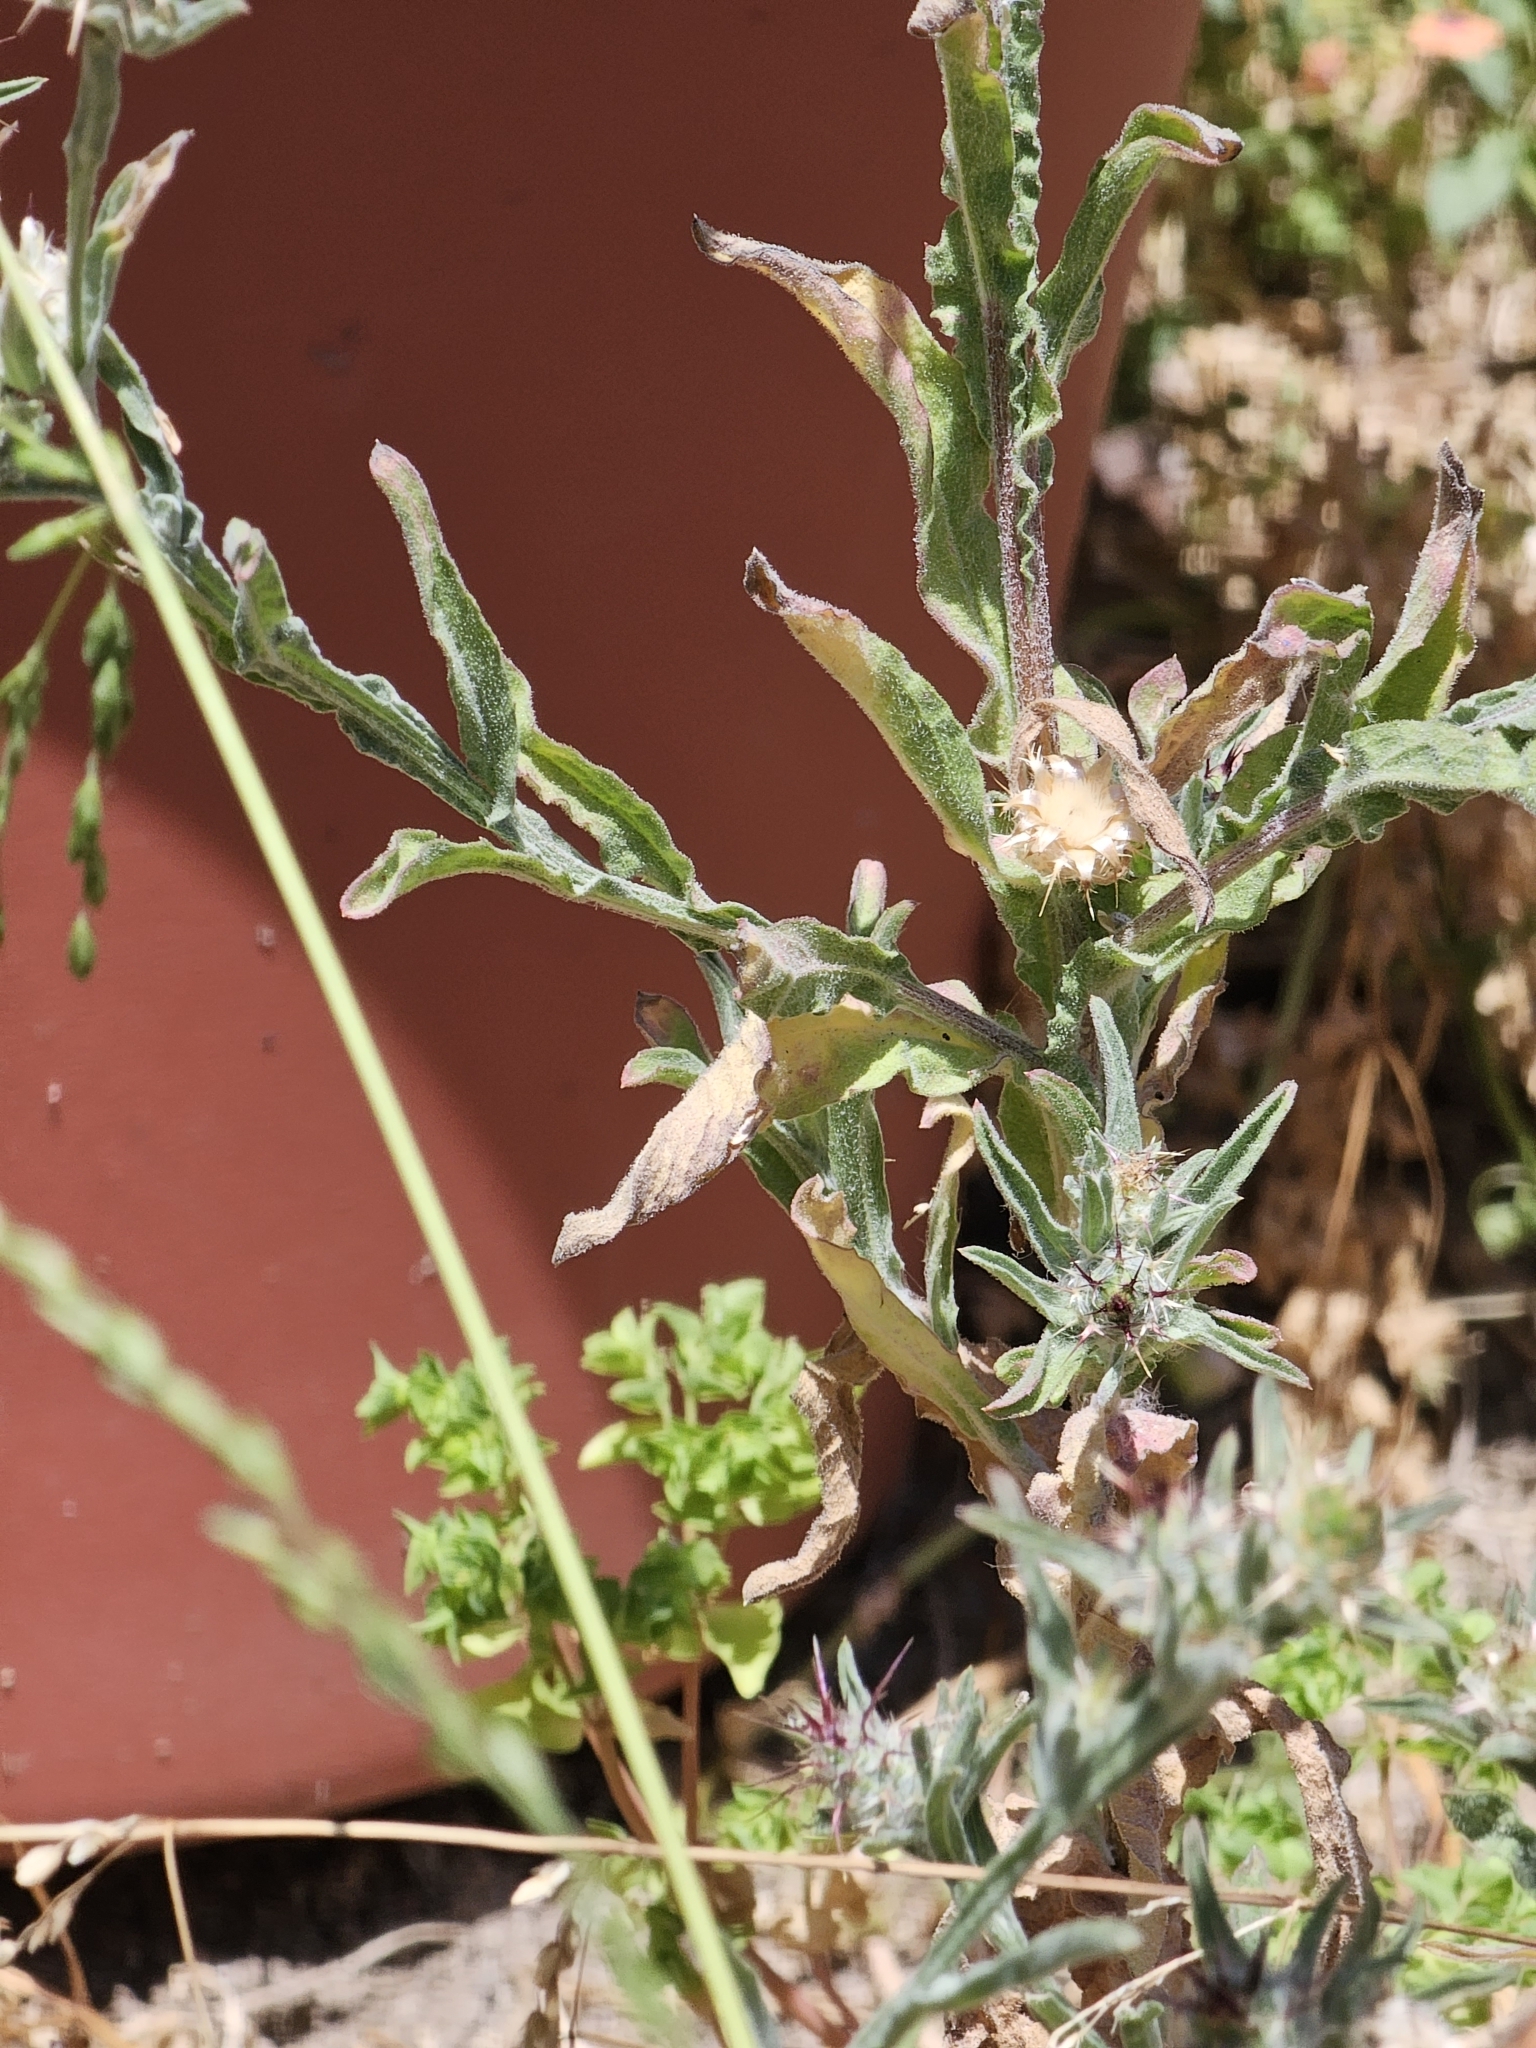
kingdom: Plantae
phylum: Tracheophyta
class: Magnoliopsida
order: Asterales
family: Asteraceae
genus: Centaurea
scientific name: Centaurea melitensis
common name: Maltese star-thistle
